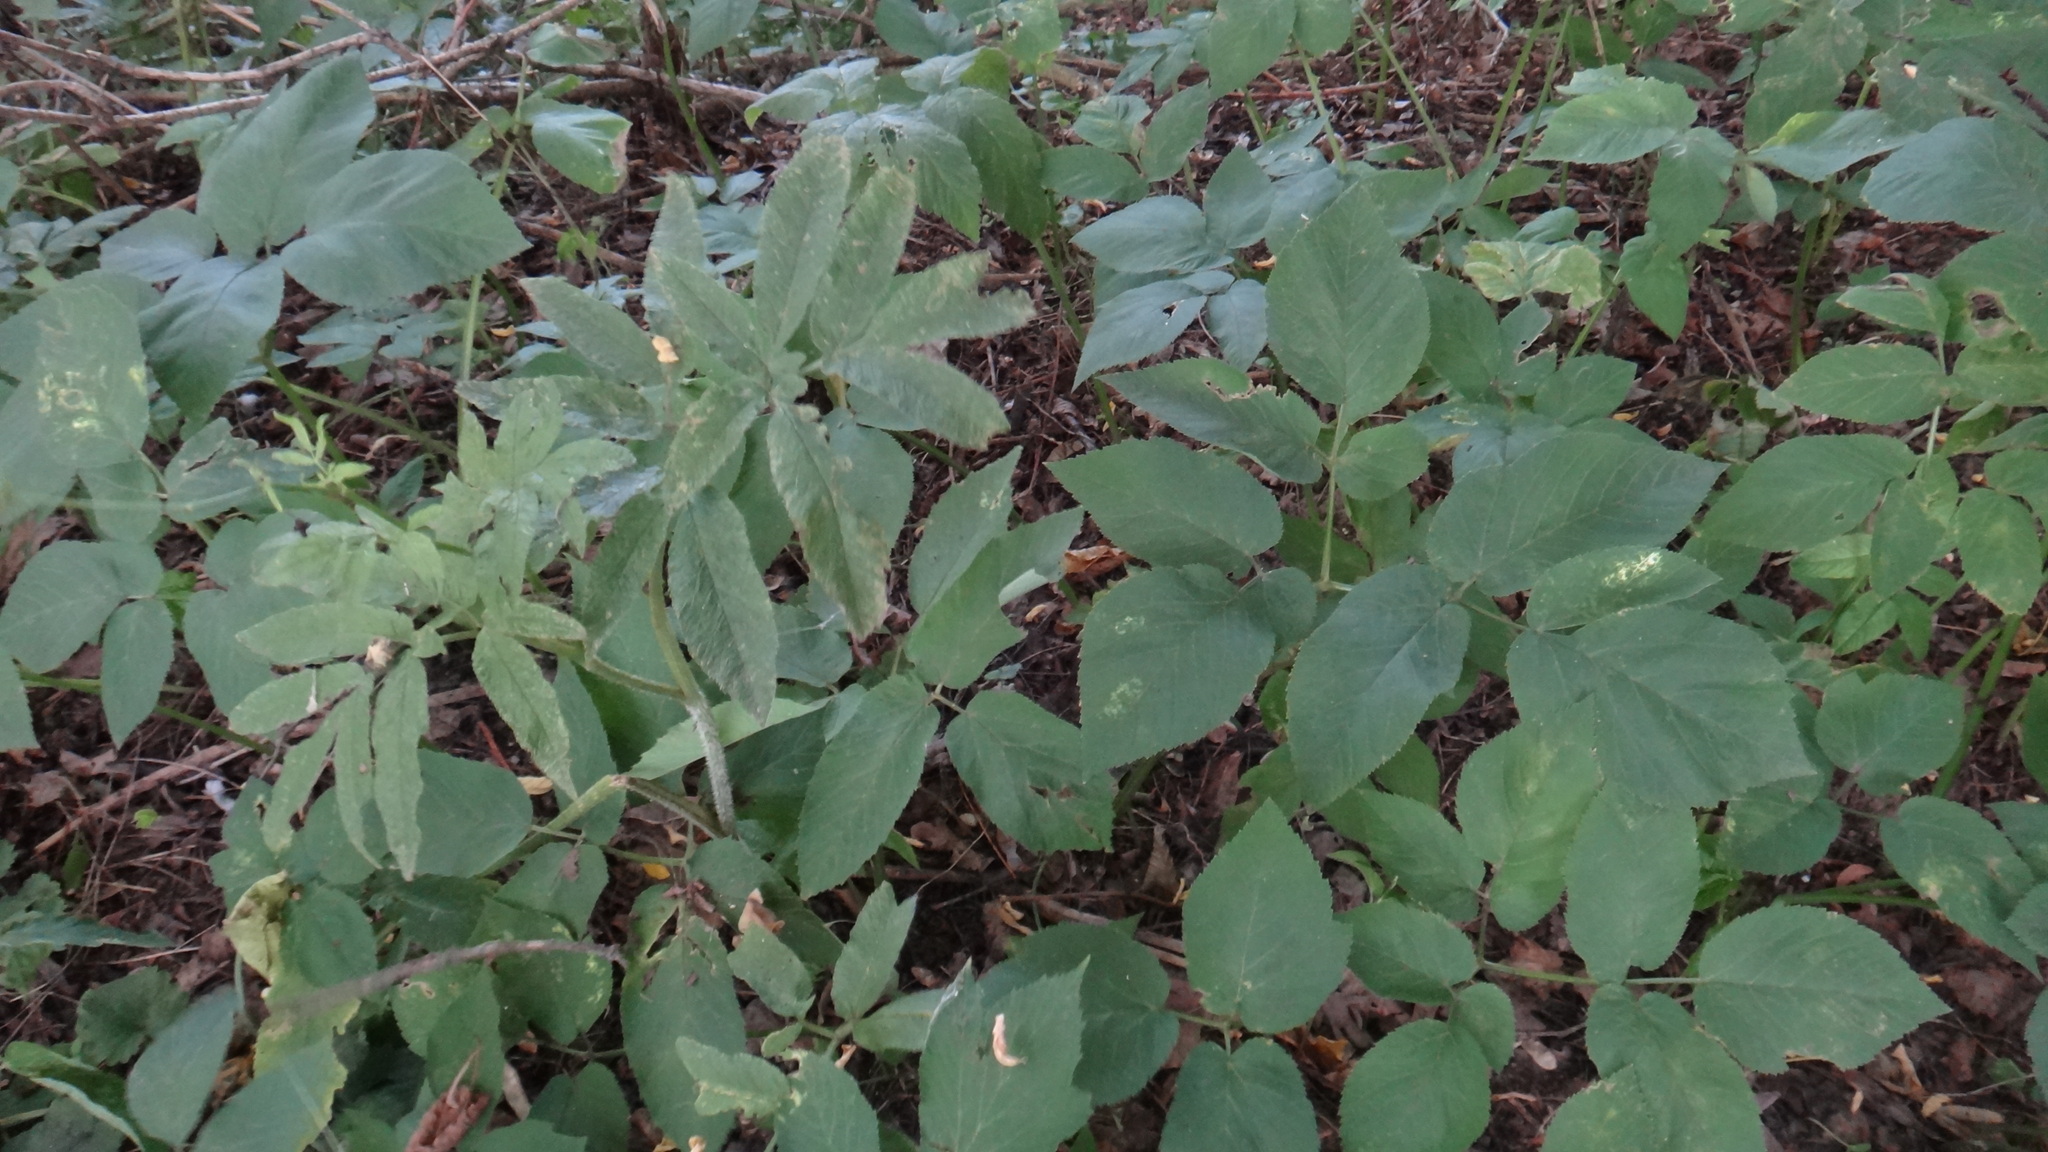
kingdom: Plantae
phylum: Tracheophyta
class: Magnoliopsida
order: Apiales
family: Apiaceae
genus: Aegopodium
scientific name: Aegopodium podagraria
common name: Ground-elder
